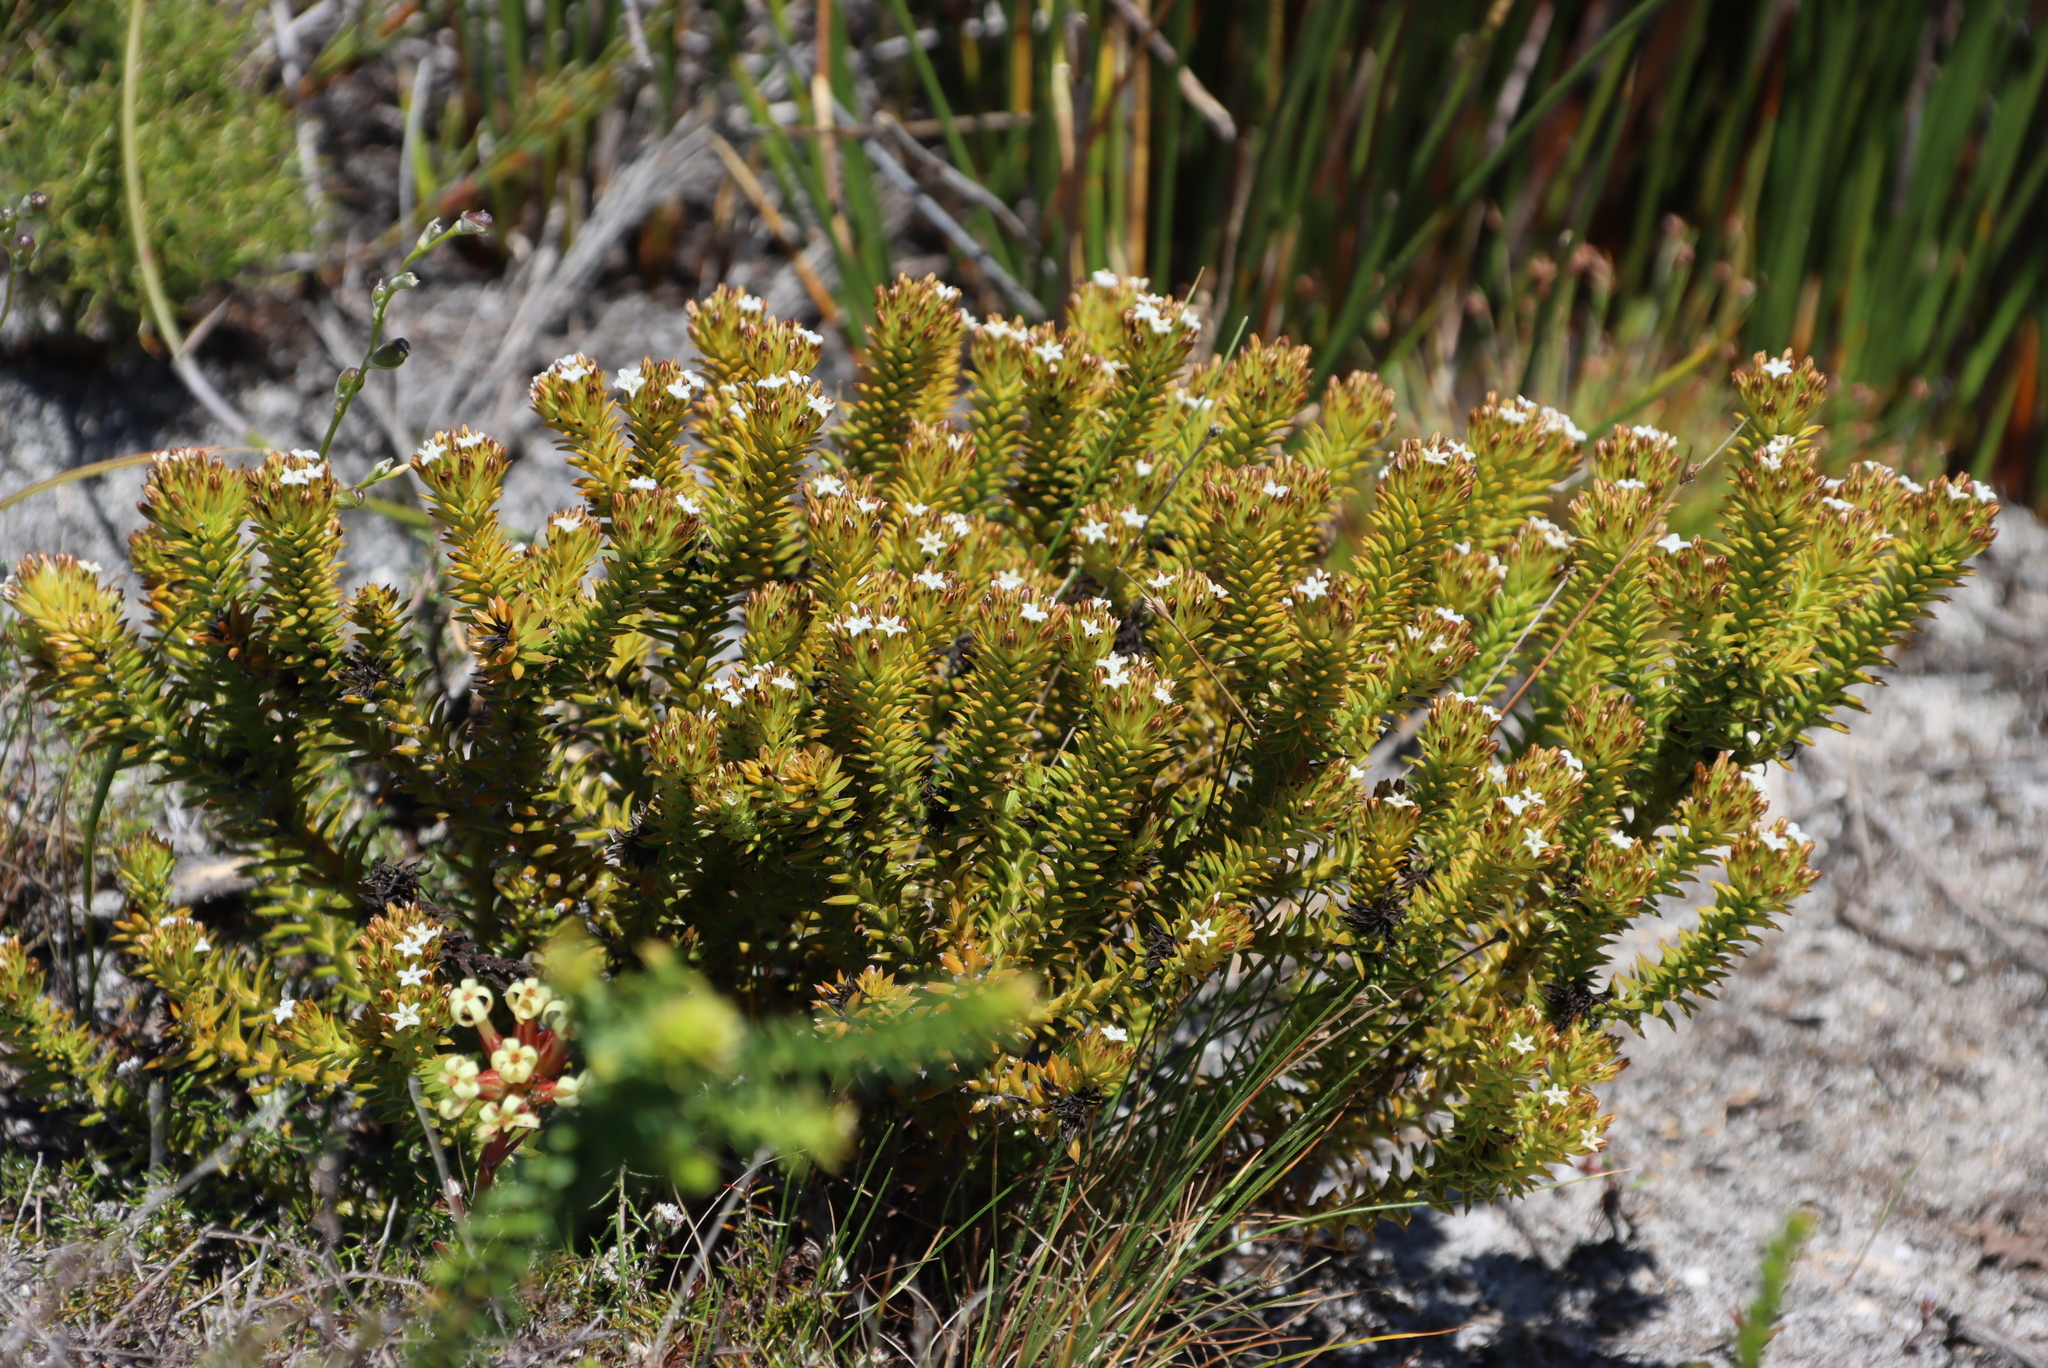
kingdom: Plantae
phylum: Tracheophyta
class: Magnoliopsida
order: Santalales
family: Thesiaceae
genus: Thesium
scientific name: Thesium viridifolium
